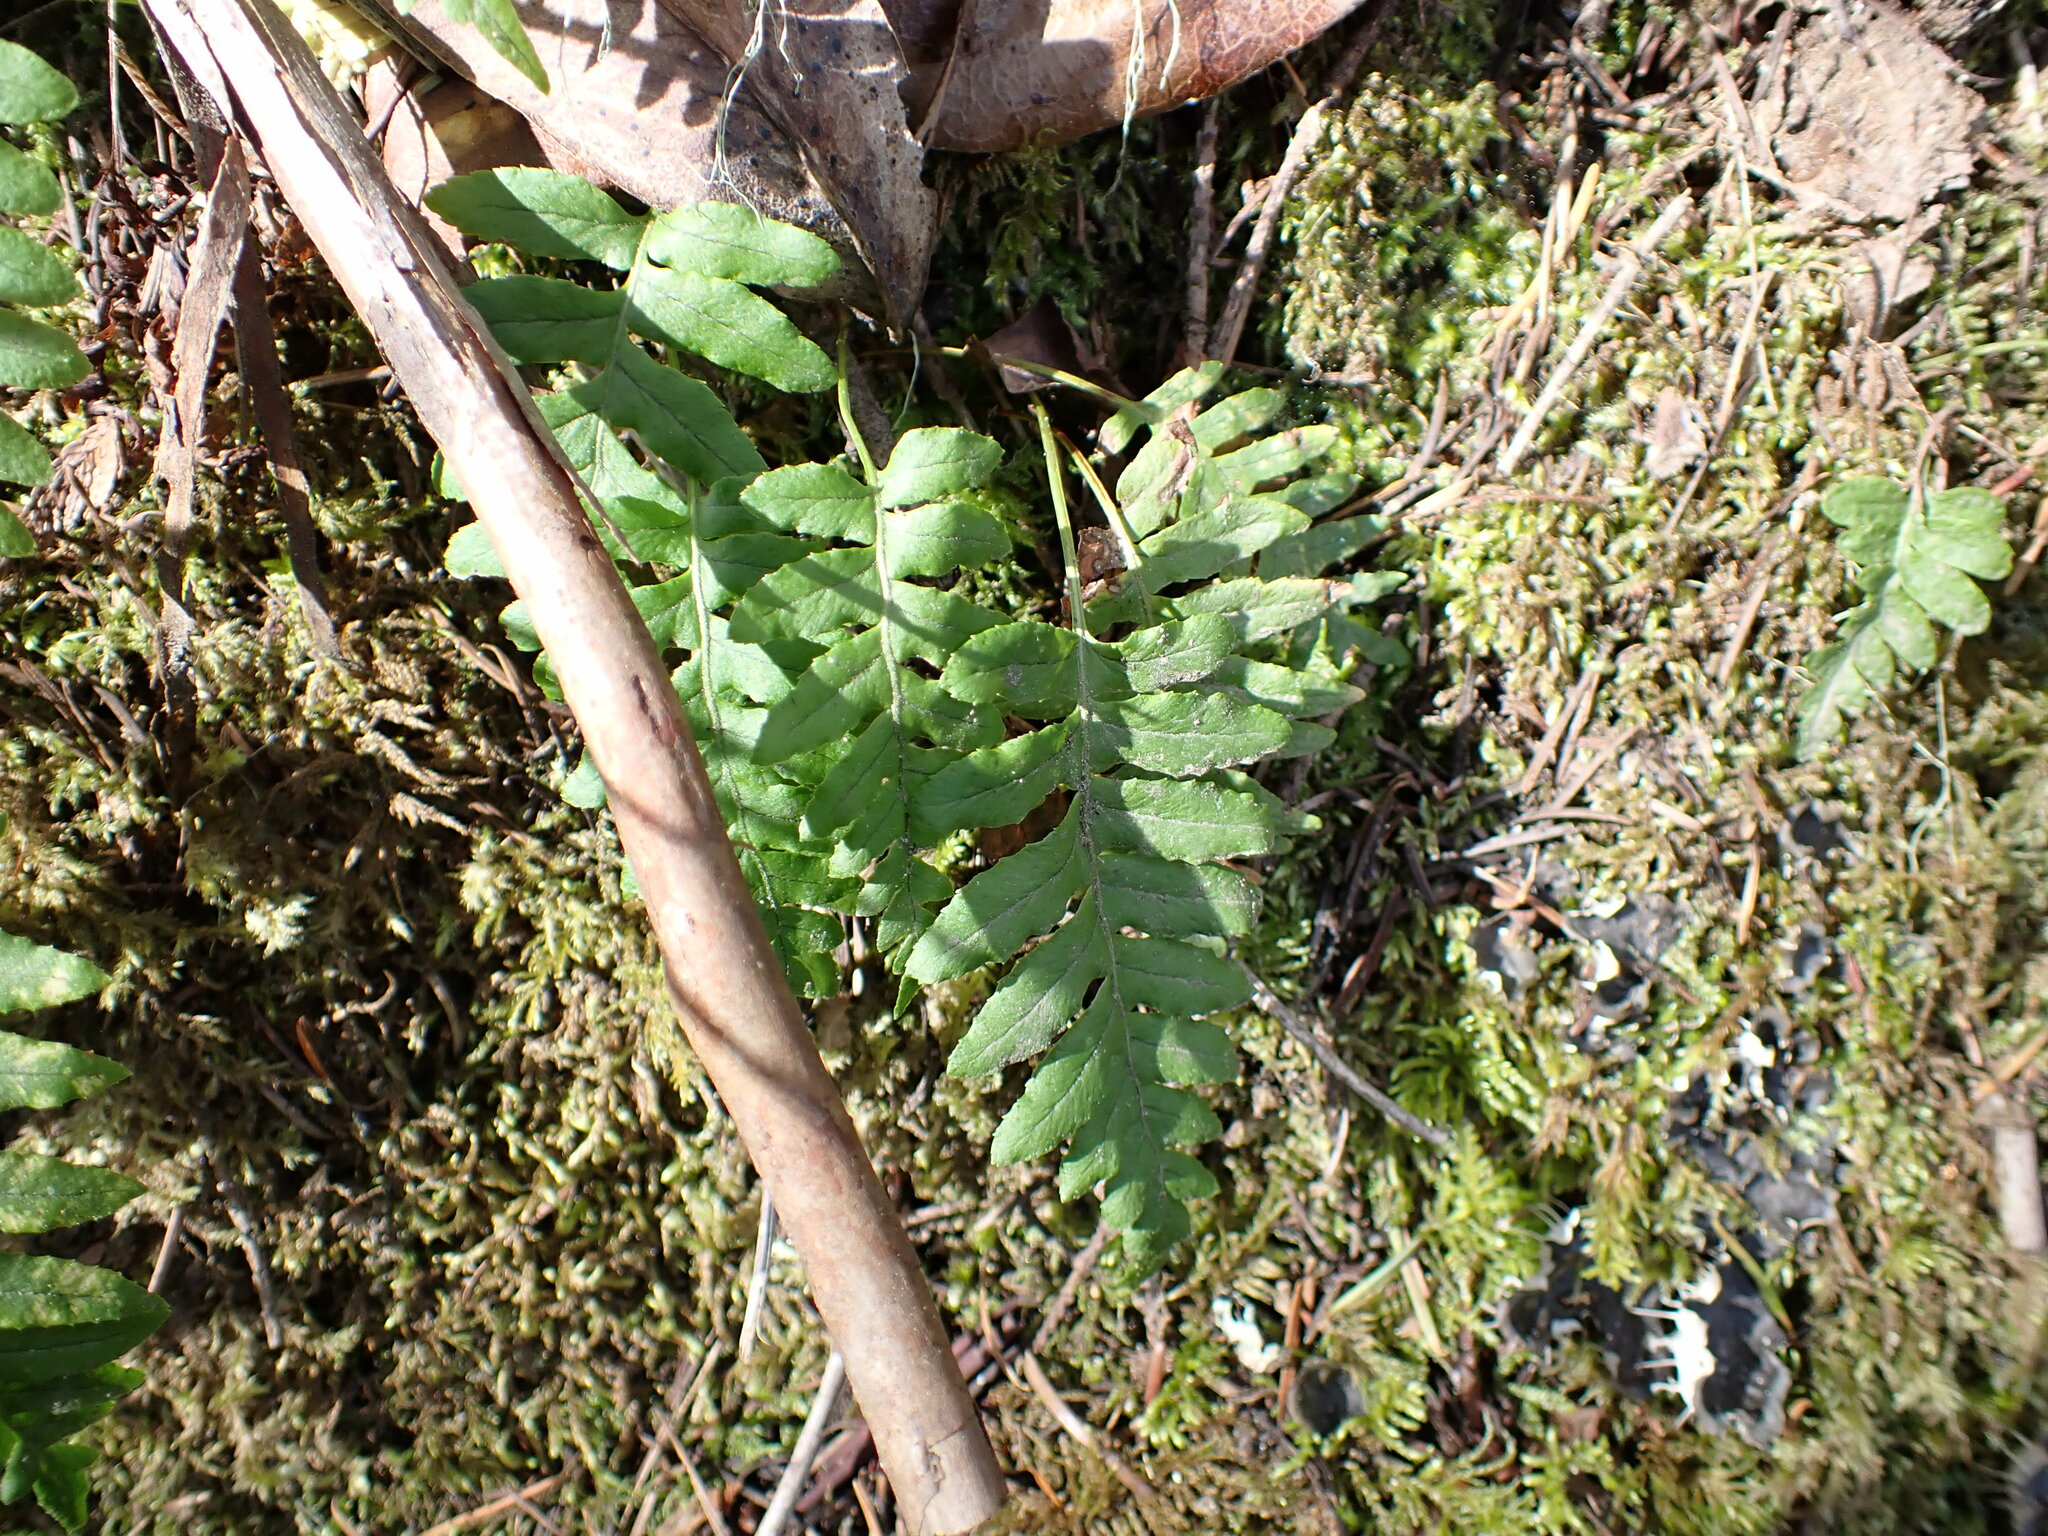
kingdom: Plantae
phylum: Tracheophyta
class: Polypodiopsida
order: Polypodiales
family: Polypodiaceae
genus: Polypodium
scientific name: Polypodium glycyrrhiza
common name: Licorice fern
